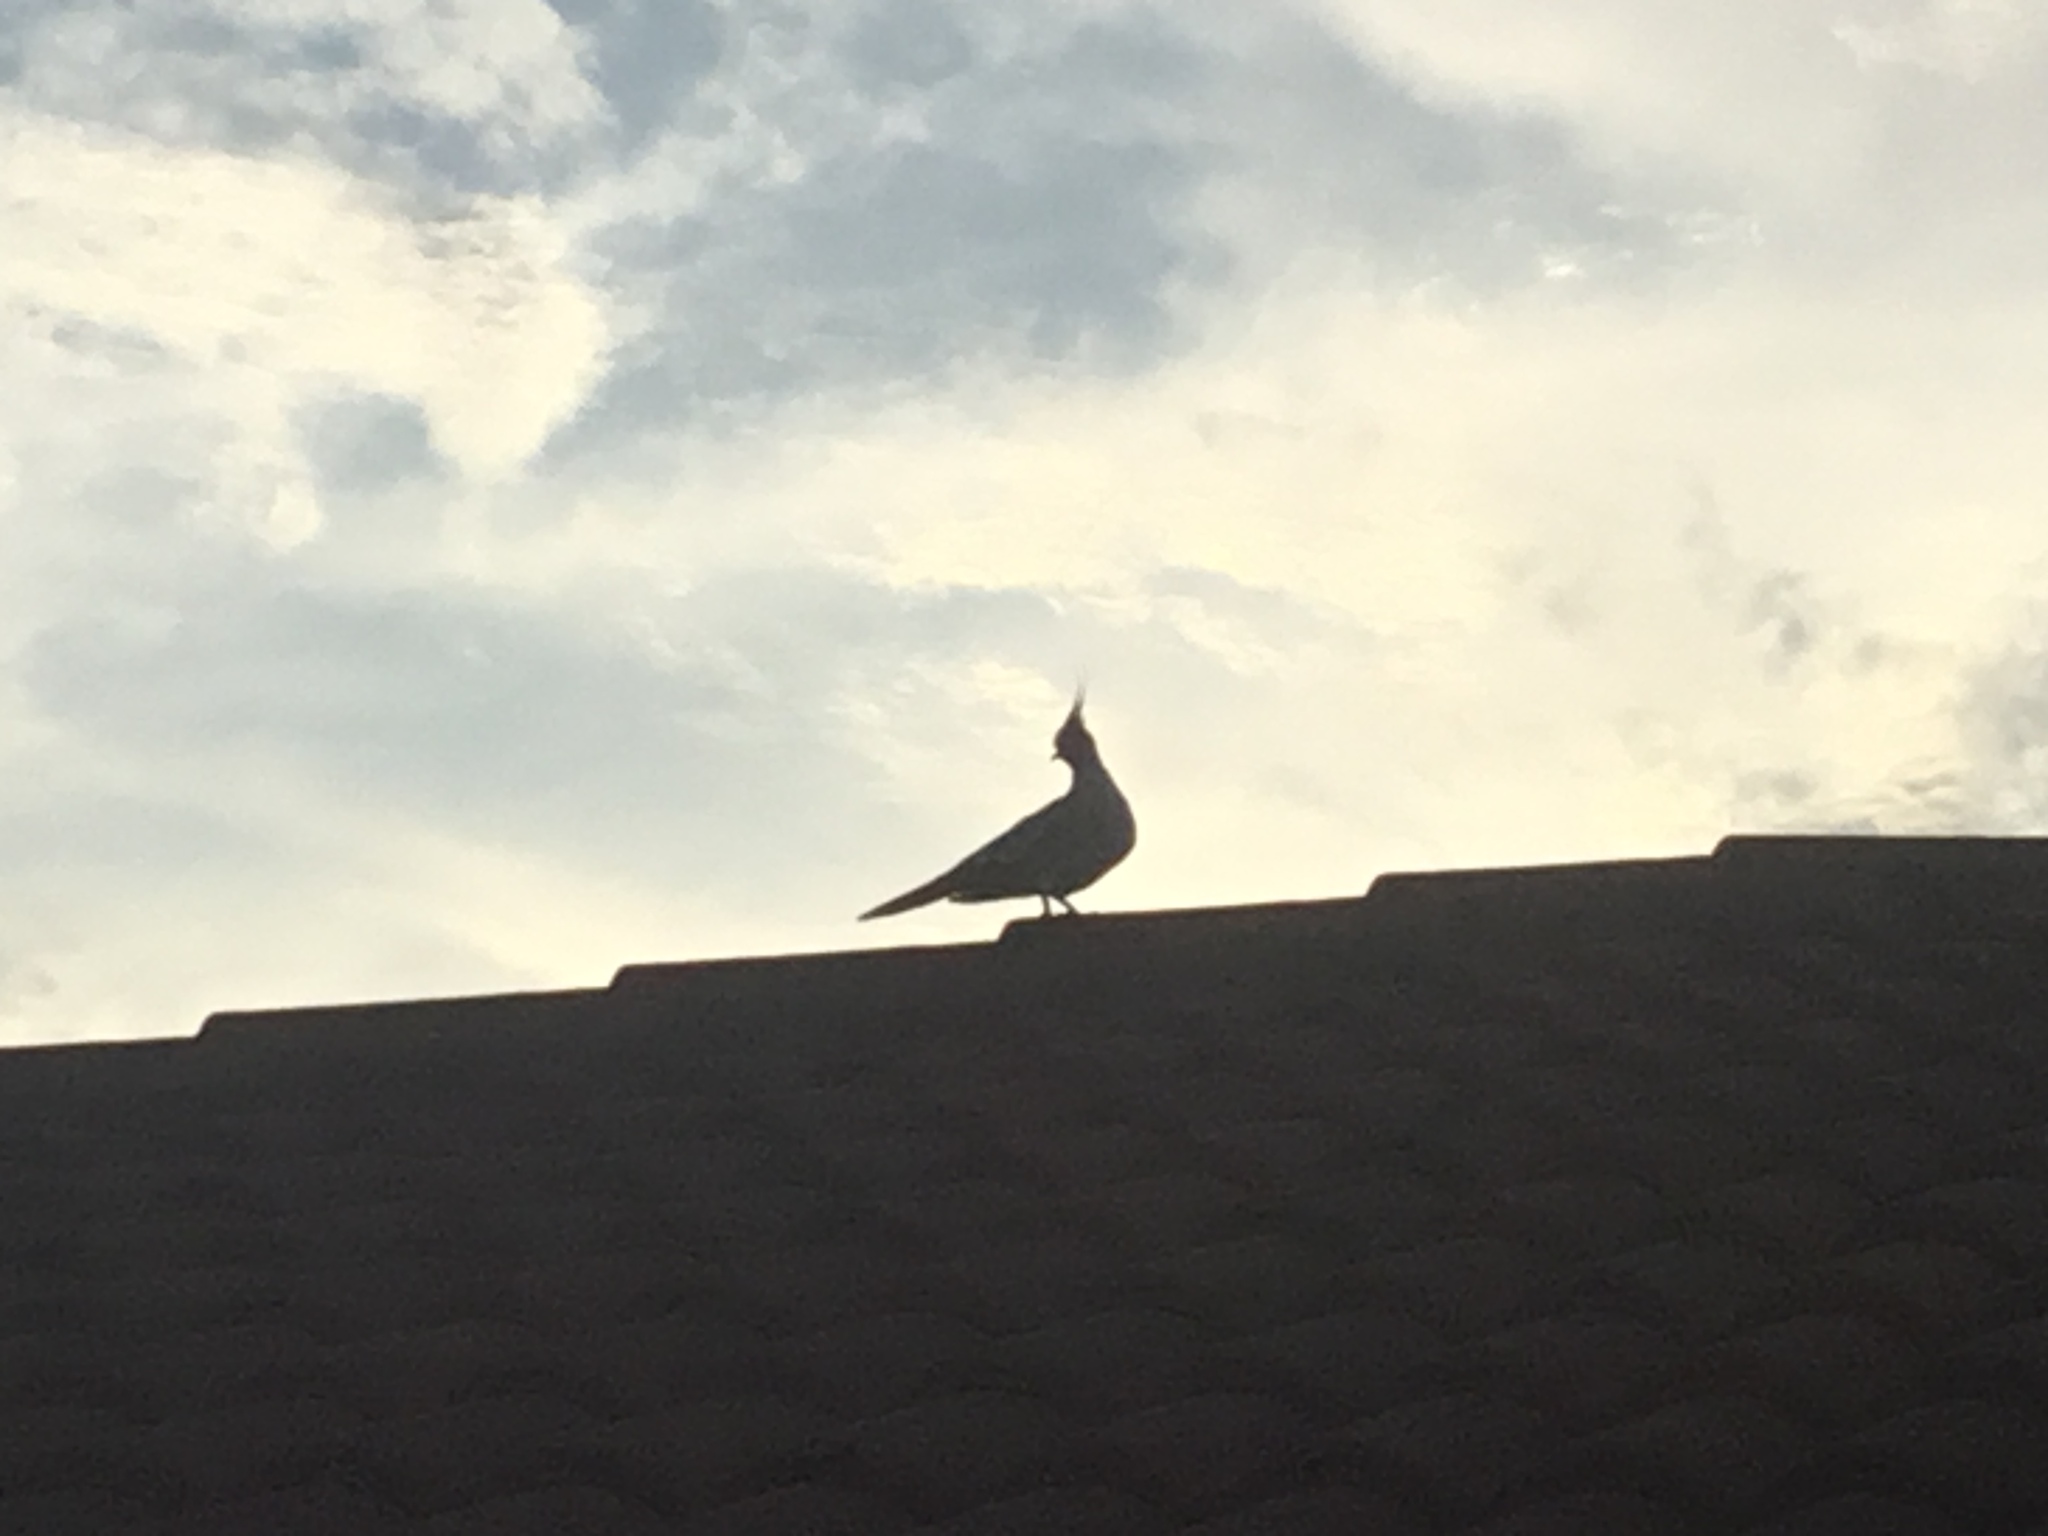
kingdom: Animalia
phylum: Chordata
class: Aves
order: Columbiformes
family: Columbidae
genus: Ocyphaps
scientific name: Ocyphaps lophotes
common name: Crested pigeon
